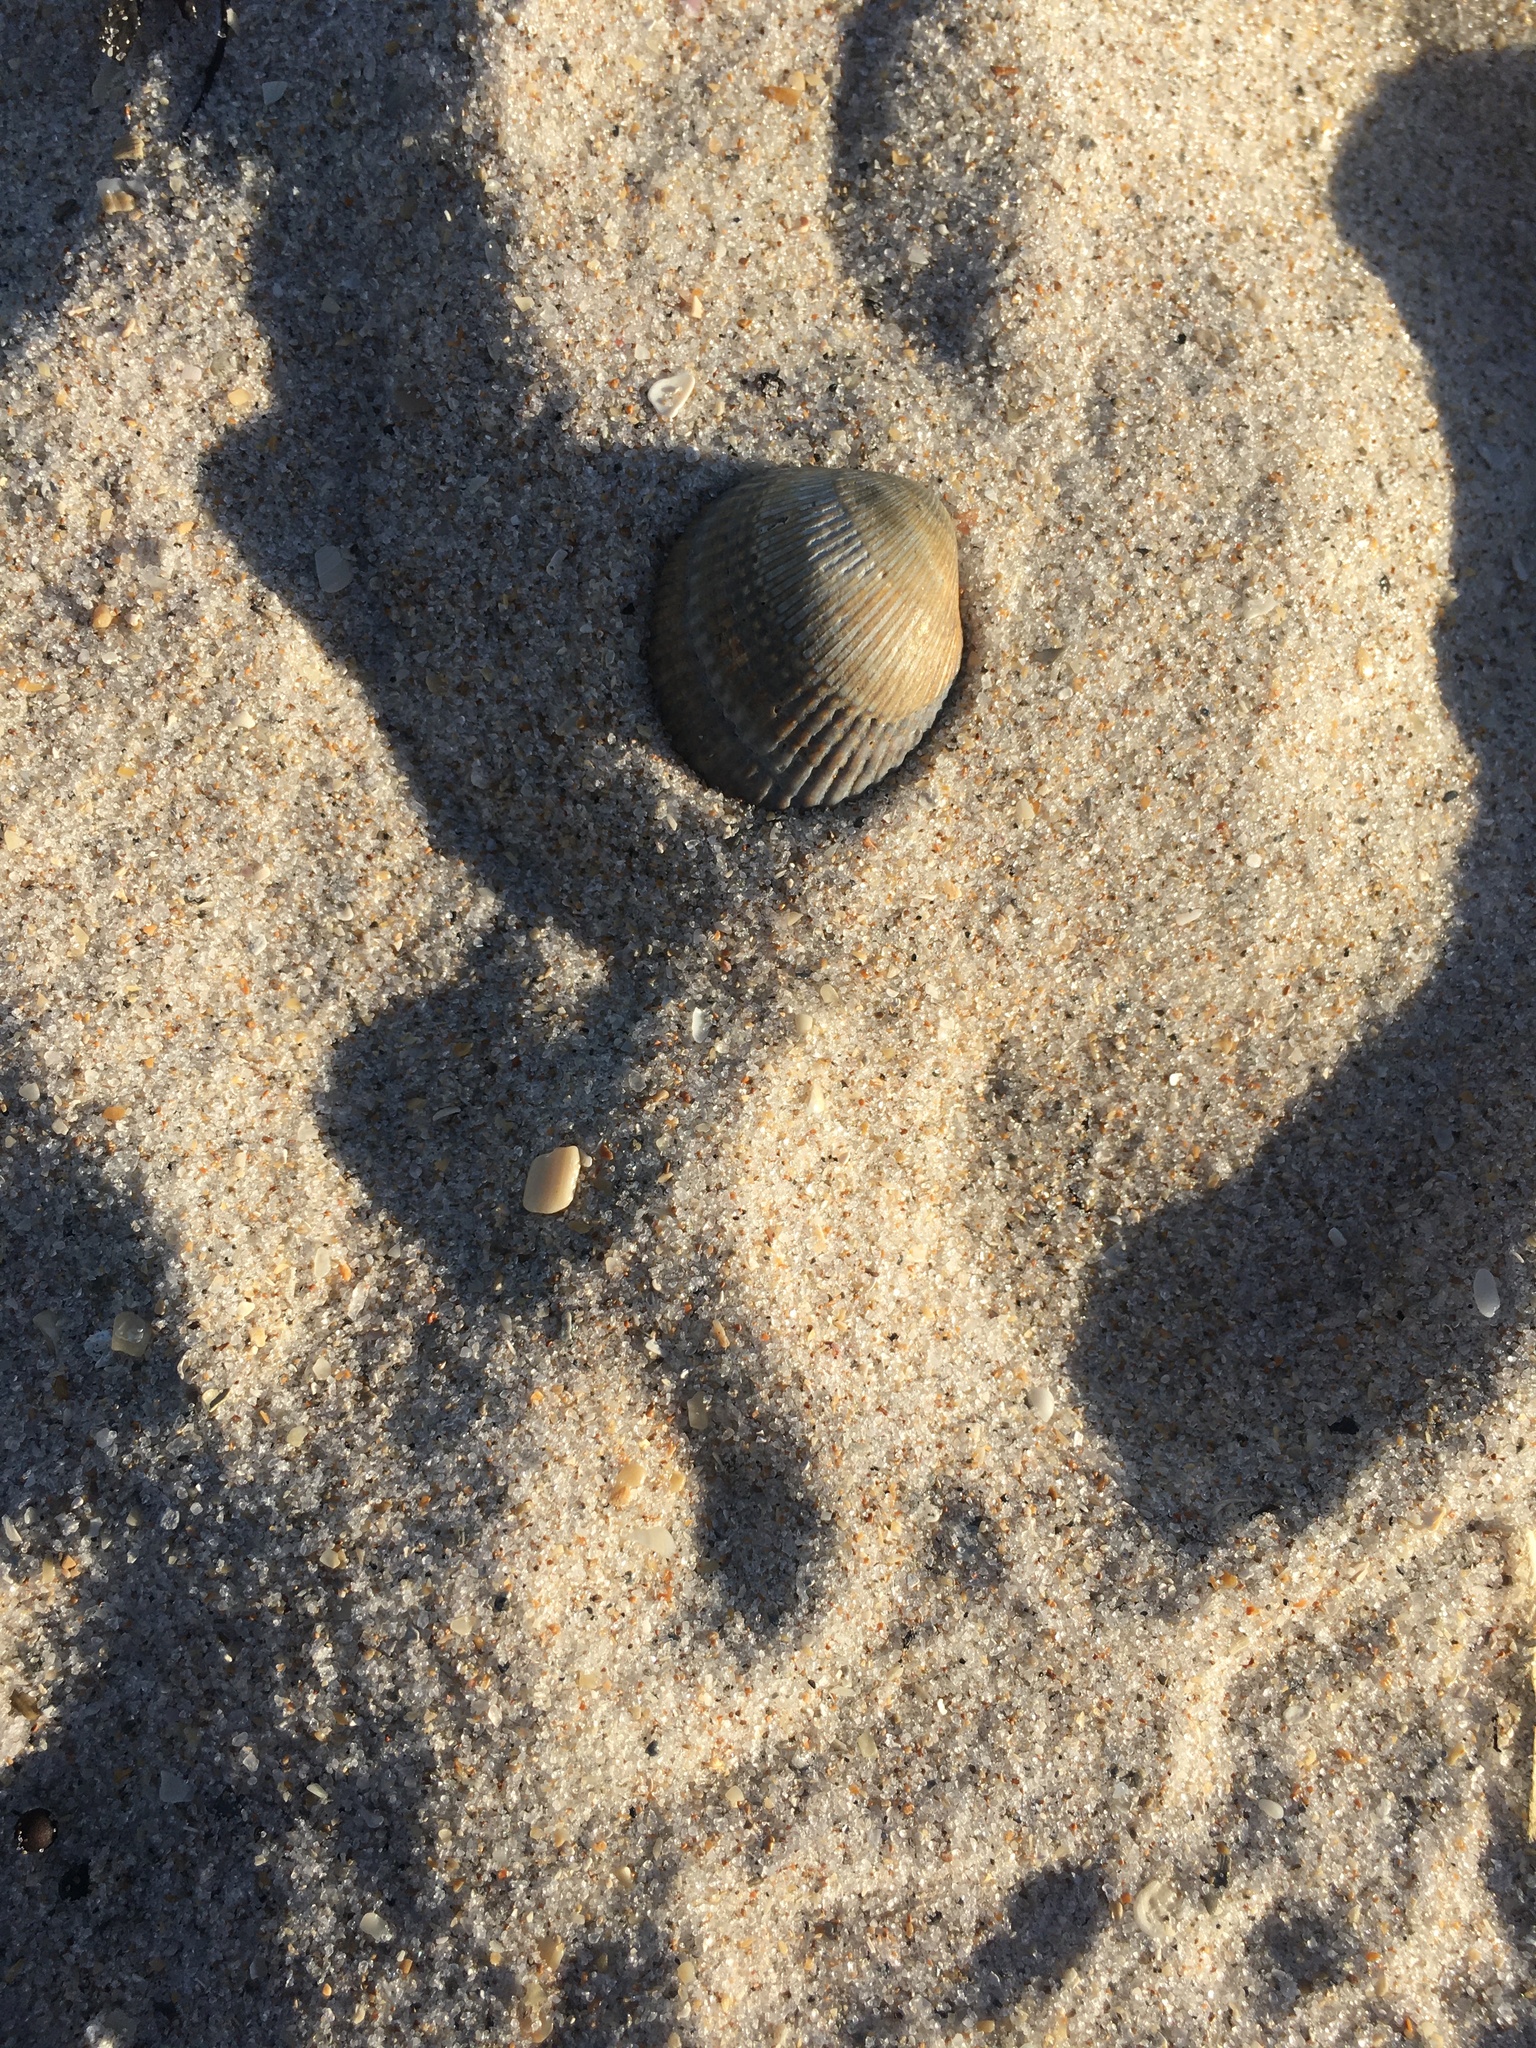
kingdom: Animalia
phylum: Mollusca
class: Bivalvia
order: Arcida
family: Arcidae
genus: Lunarca
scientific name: Lunarca ovalis
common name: Blood ark
